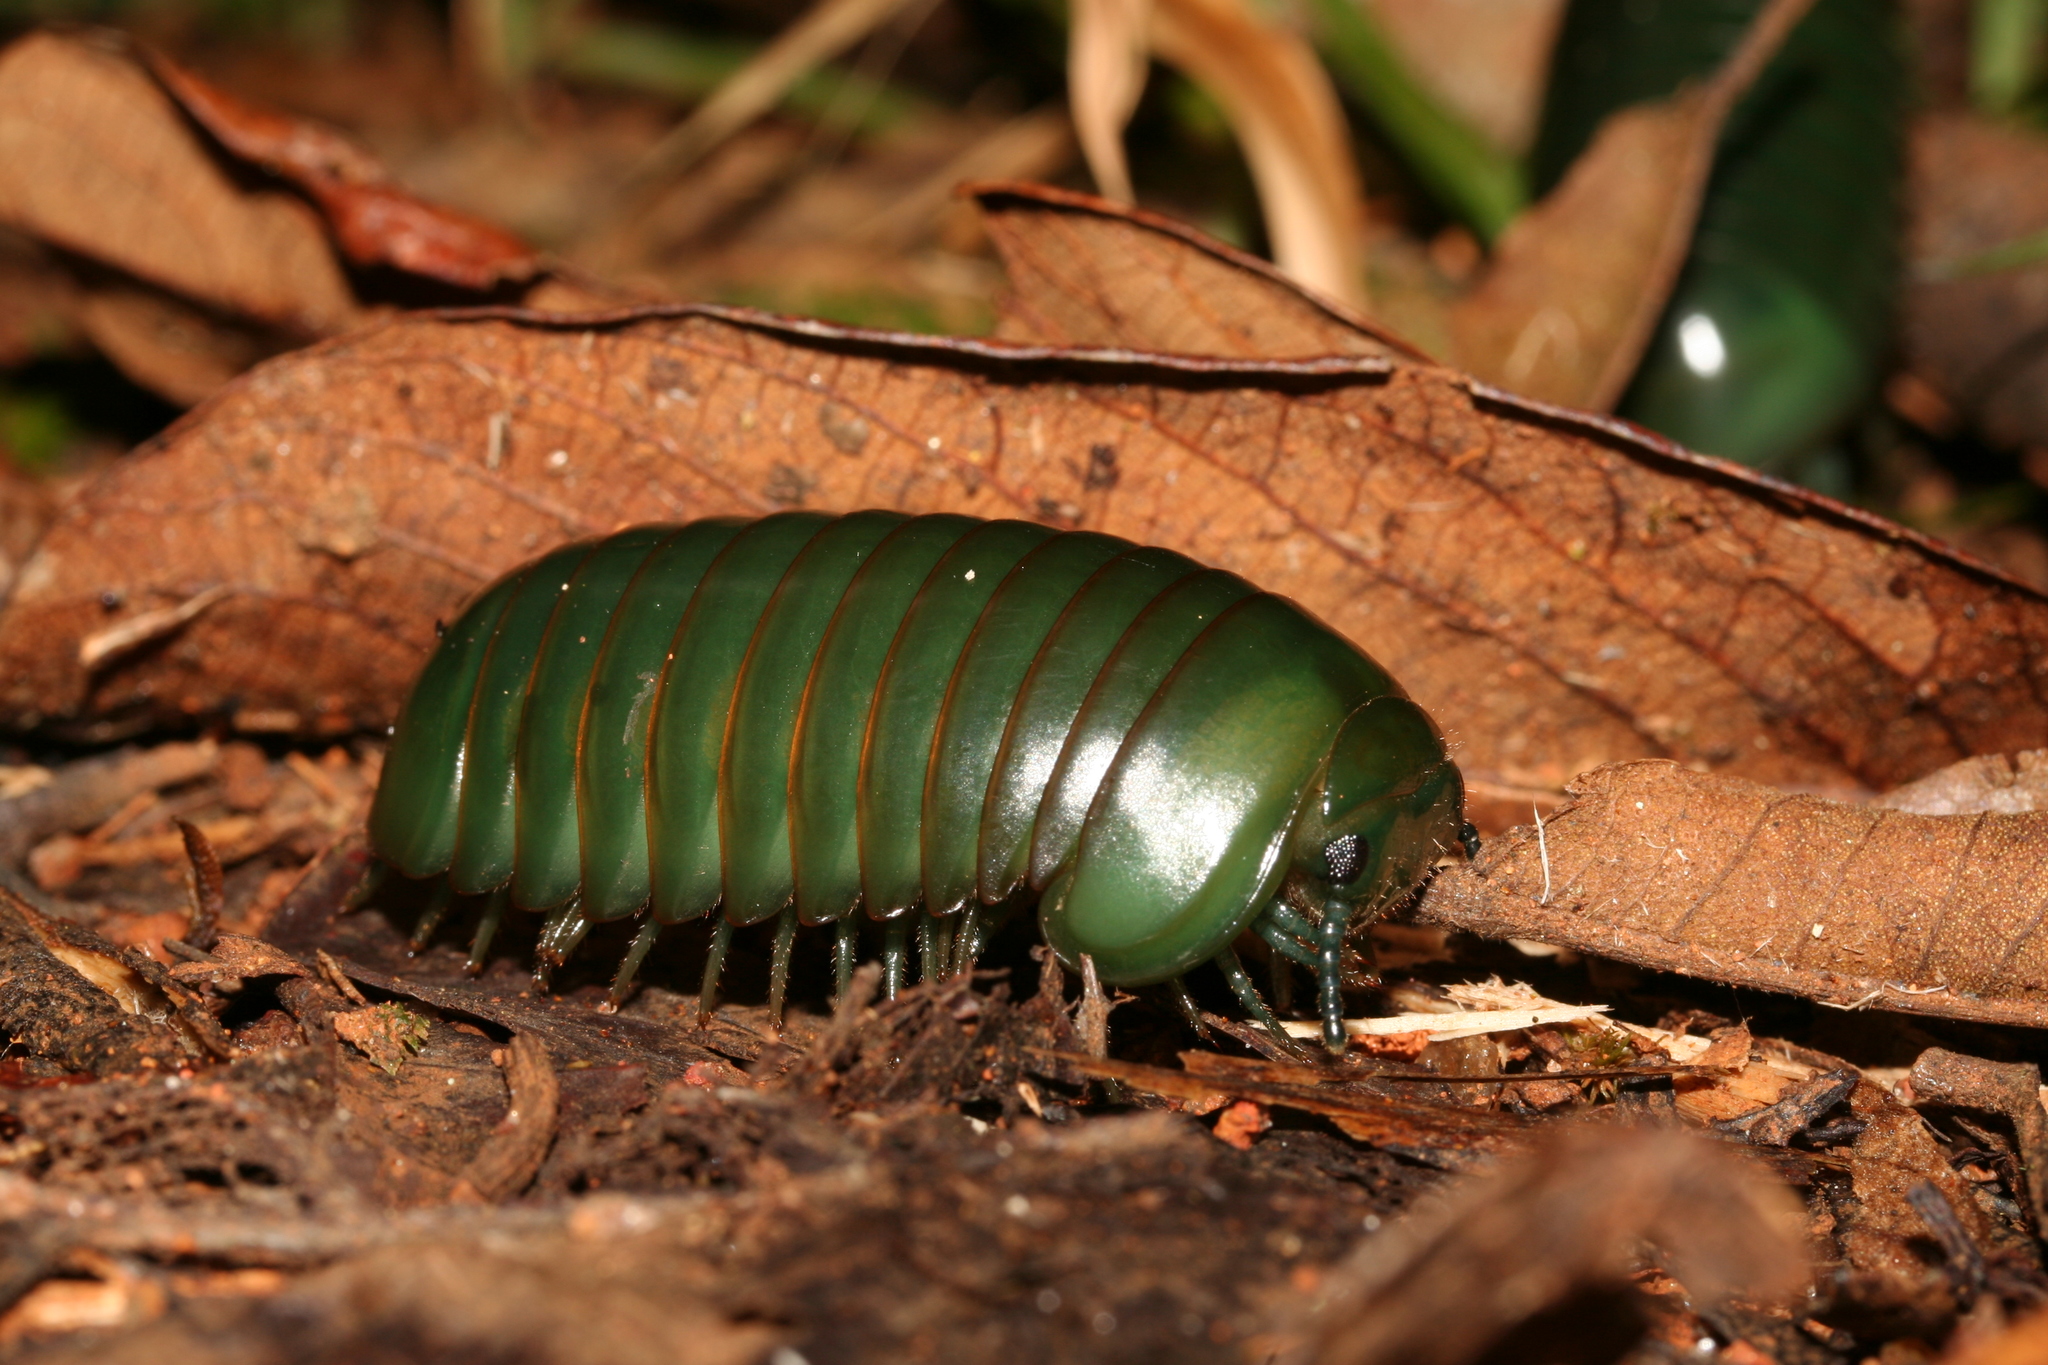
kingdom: Animalia
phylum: Arthropoda
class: Diplopoda
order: Sphaerotheriida
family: Arthrosphaeridae
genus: Zoosphaerium
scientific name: Zoosphaerium neptunus
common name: Emerald green giant pill-millipede
